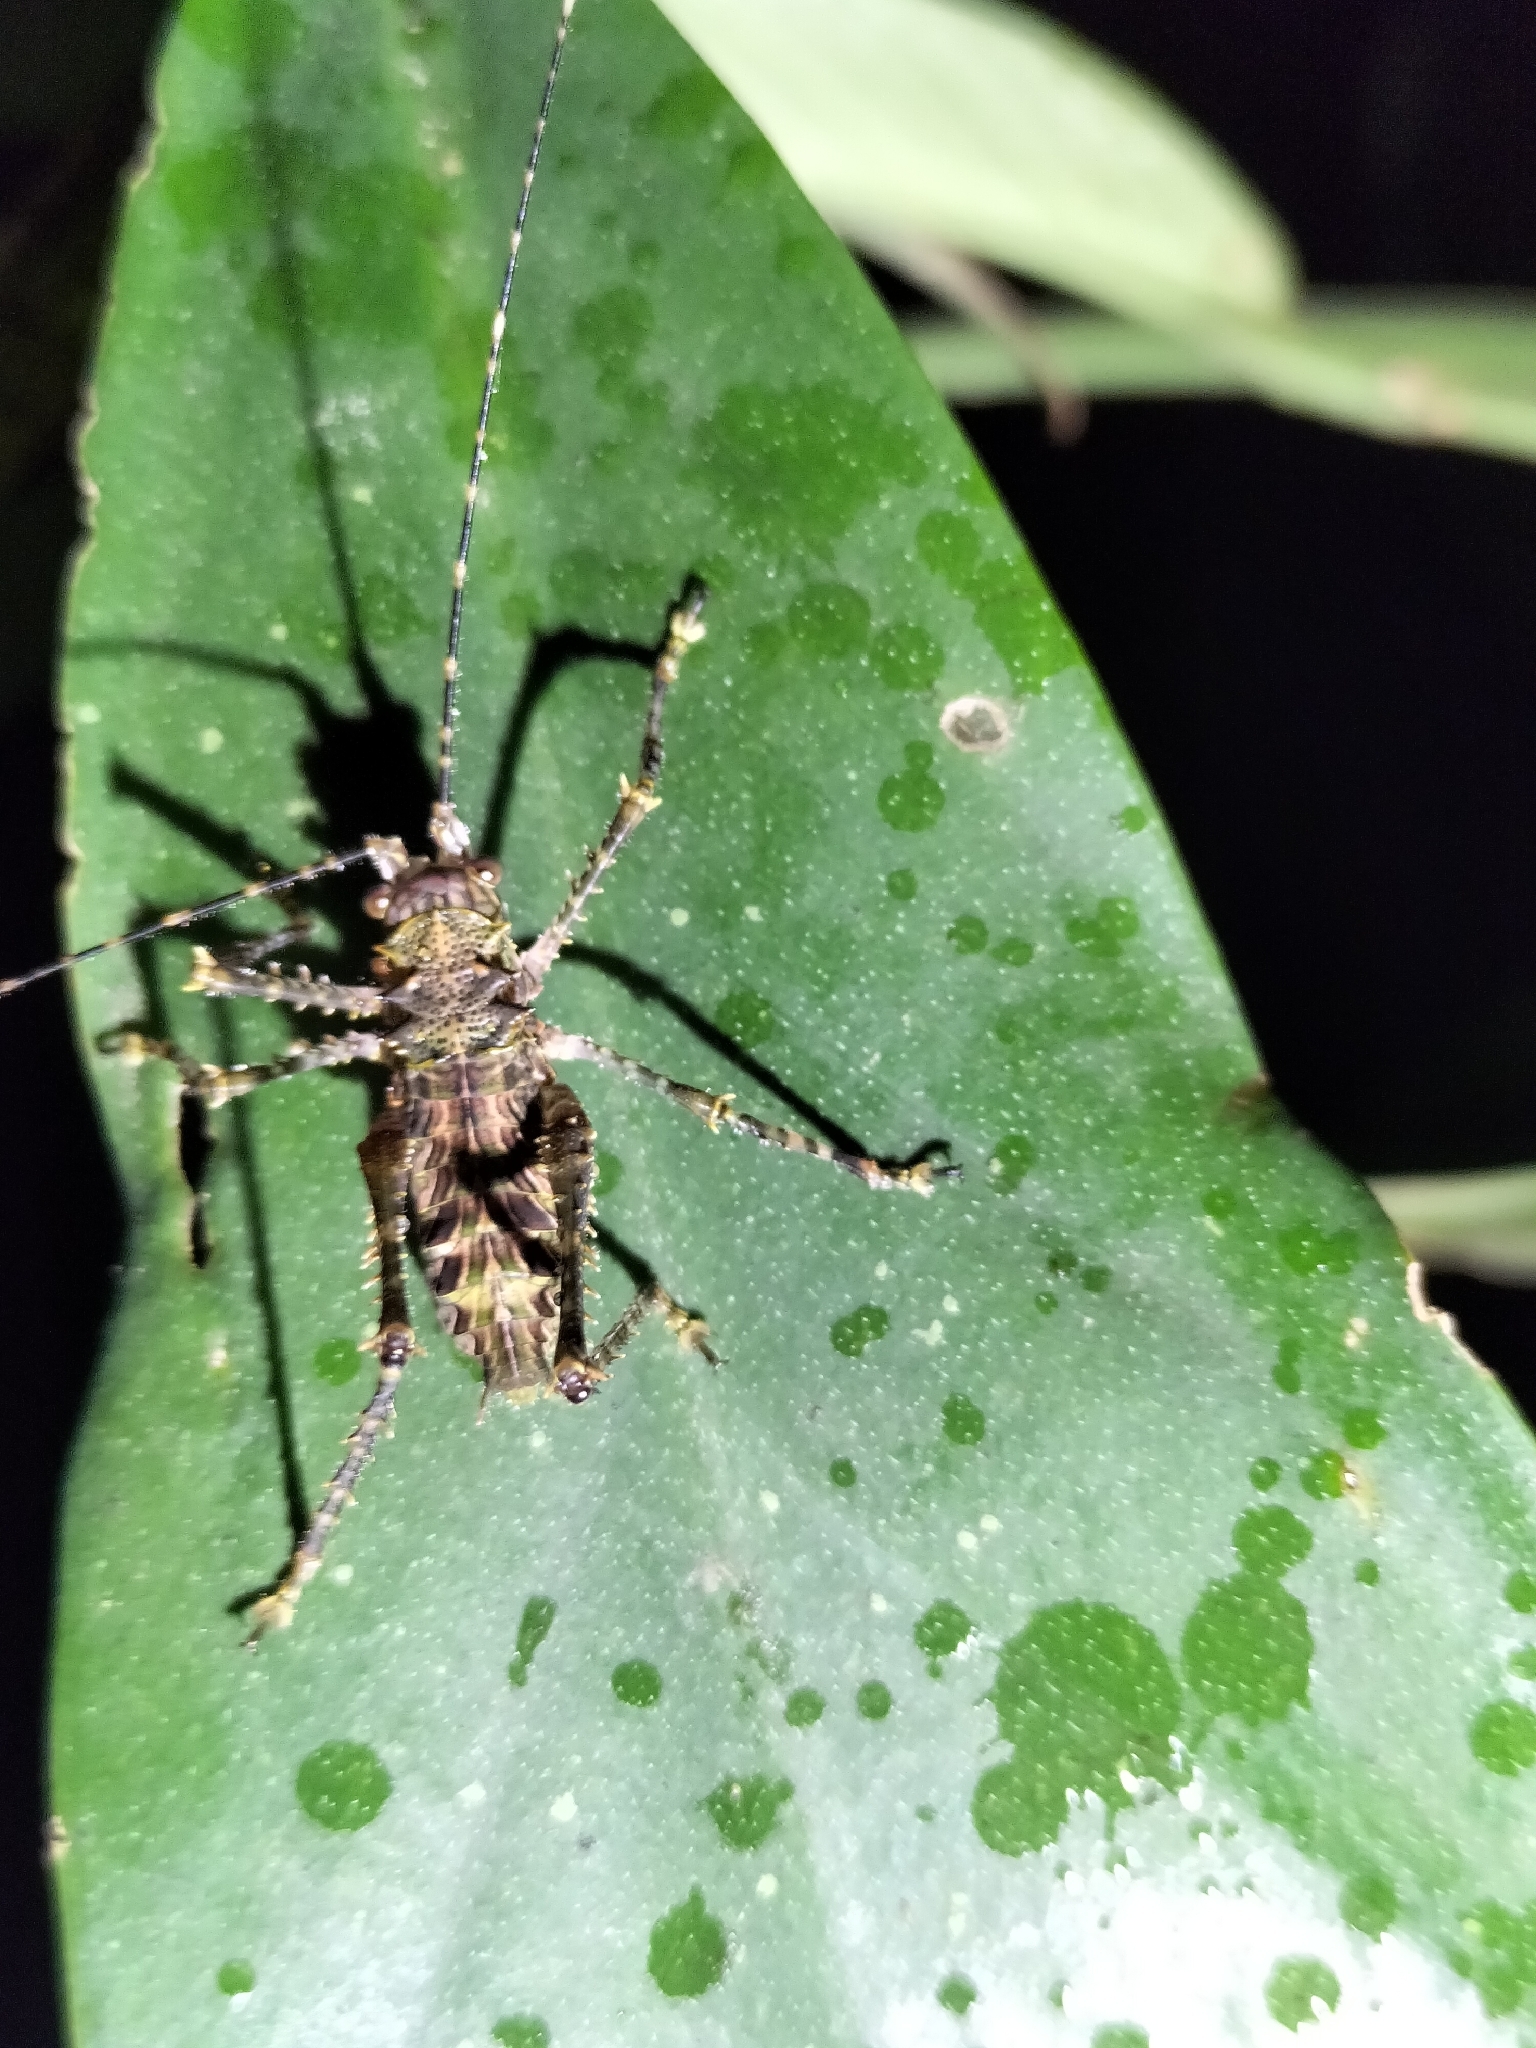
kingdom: Animalia
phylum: Arthropoda
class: Insecta
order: Orthoptera
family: Tettigoniidae
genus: Phricta
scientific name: Phricta spinosa
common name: Giant spiny forest katydid
